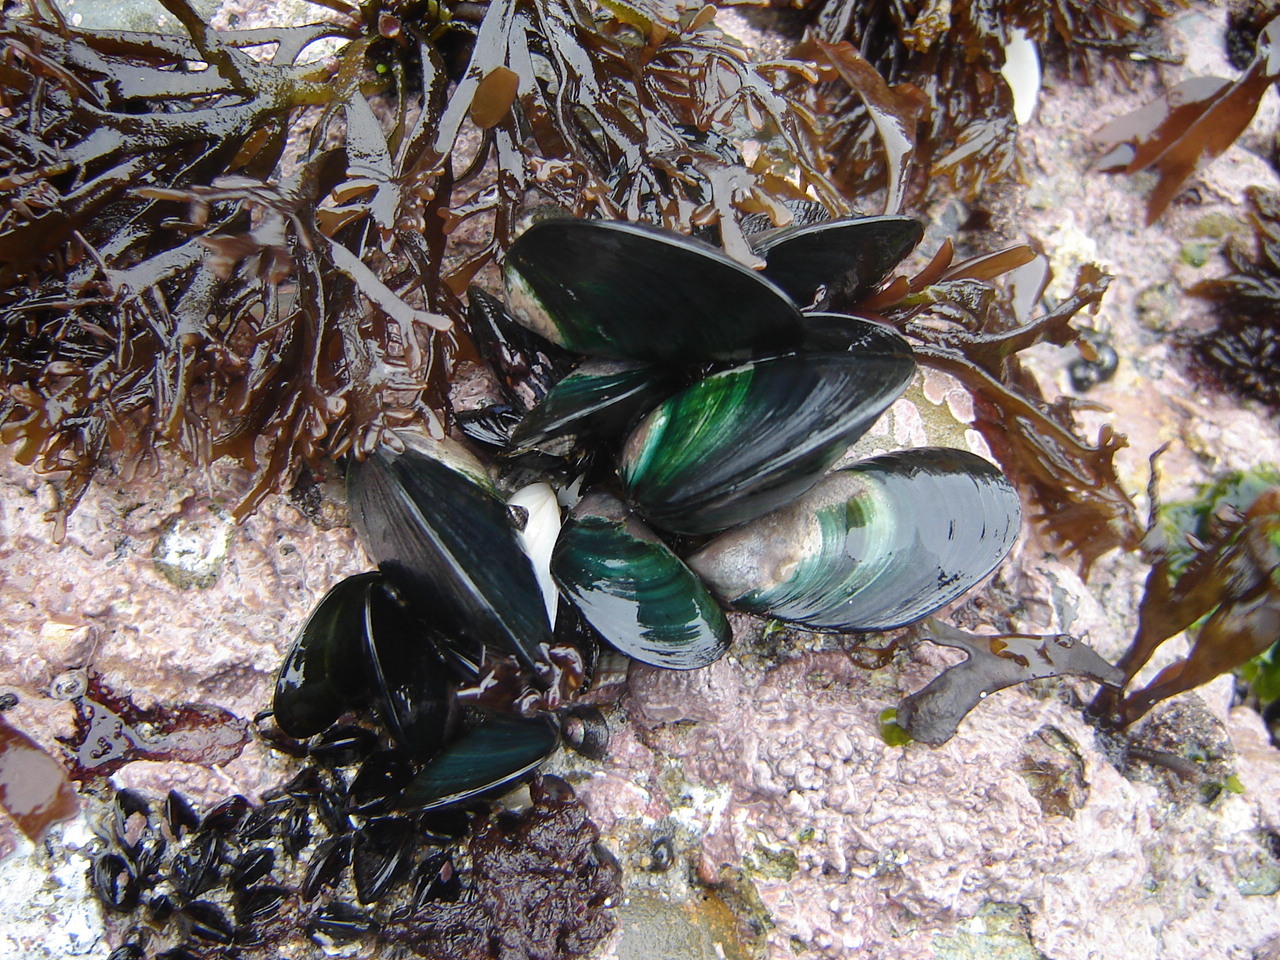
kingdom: Animalia
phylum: Mollusca
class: Bivalvia
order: Mytilida
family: Mytilidae
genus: Perna
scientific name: Perna canaliculus
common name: New zealand greenshelltm
